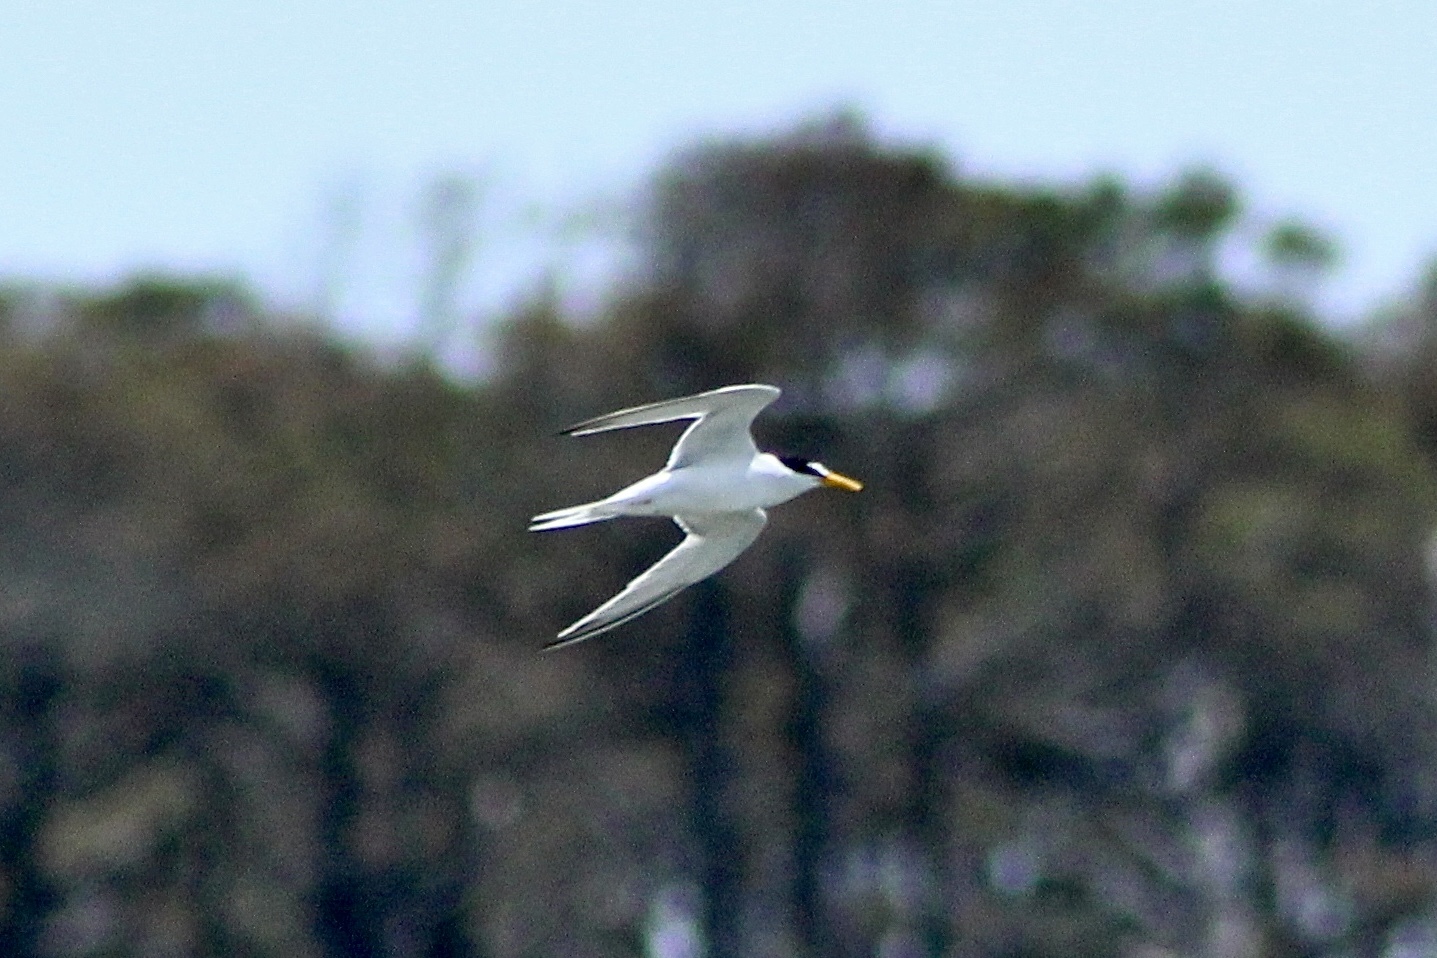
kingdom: Animalia
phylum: Chordata
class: Aves
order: Charadriiformes
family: Laridae
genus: Sternula
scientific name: Sternula antillarum
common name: Least tern
